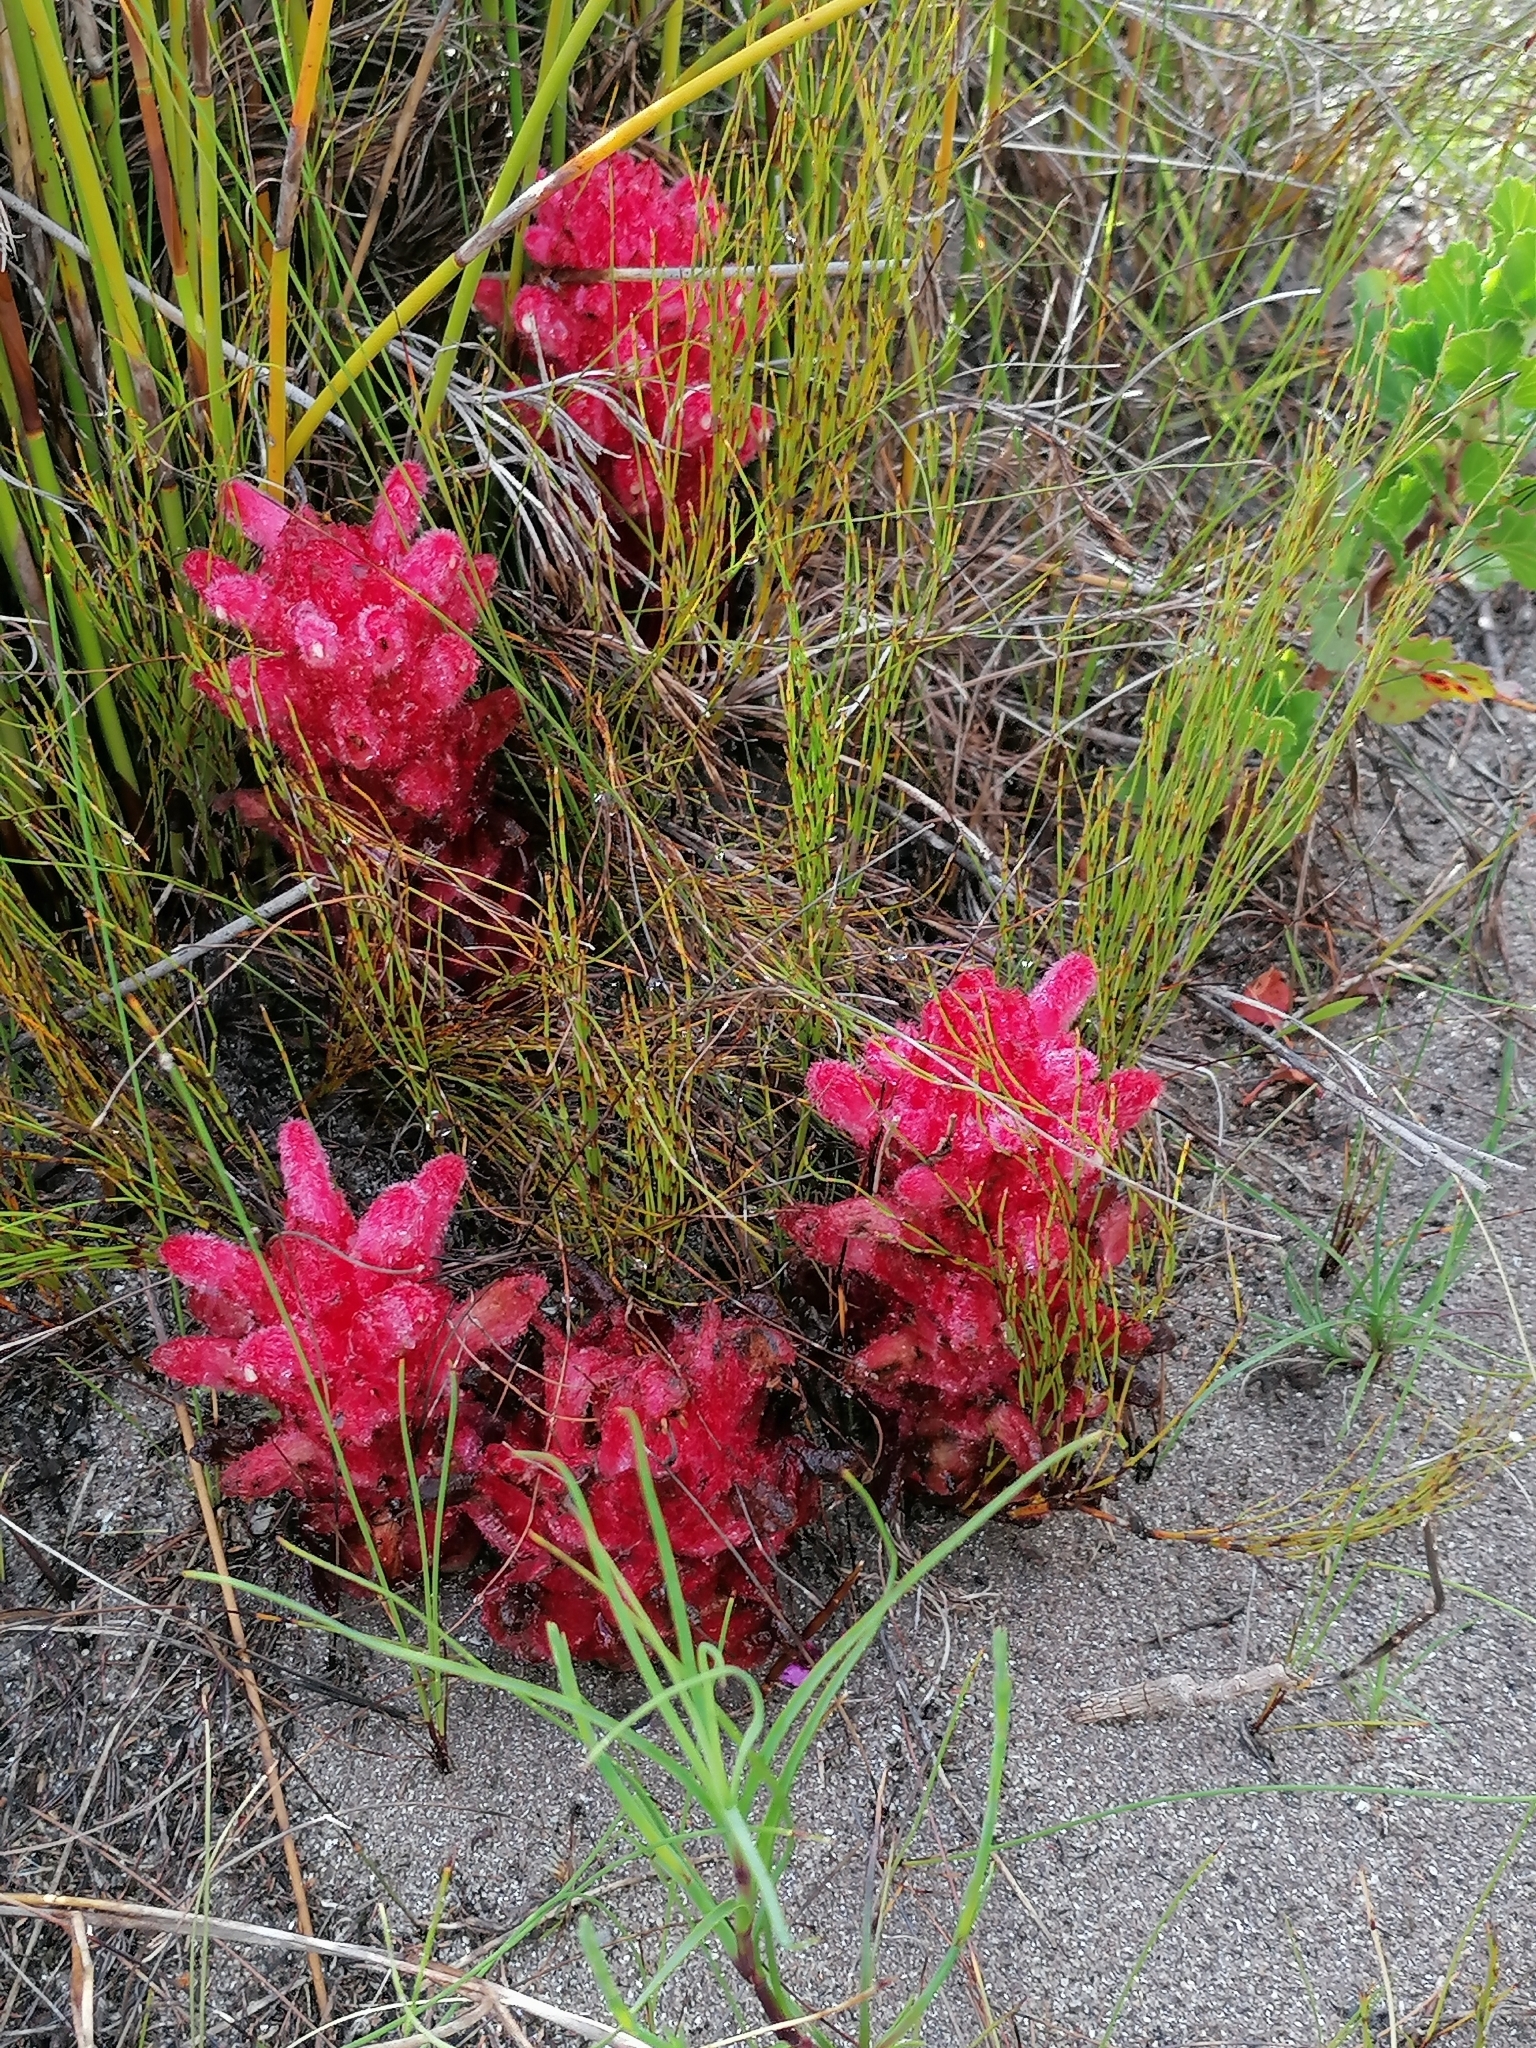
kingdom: Plantae
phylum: Tracheophyta
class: Magnoliopsida
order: Lamiales
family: Orobanchaceae
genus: Hyobanche
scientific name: Hyobanche sanguinea
